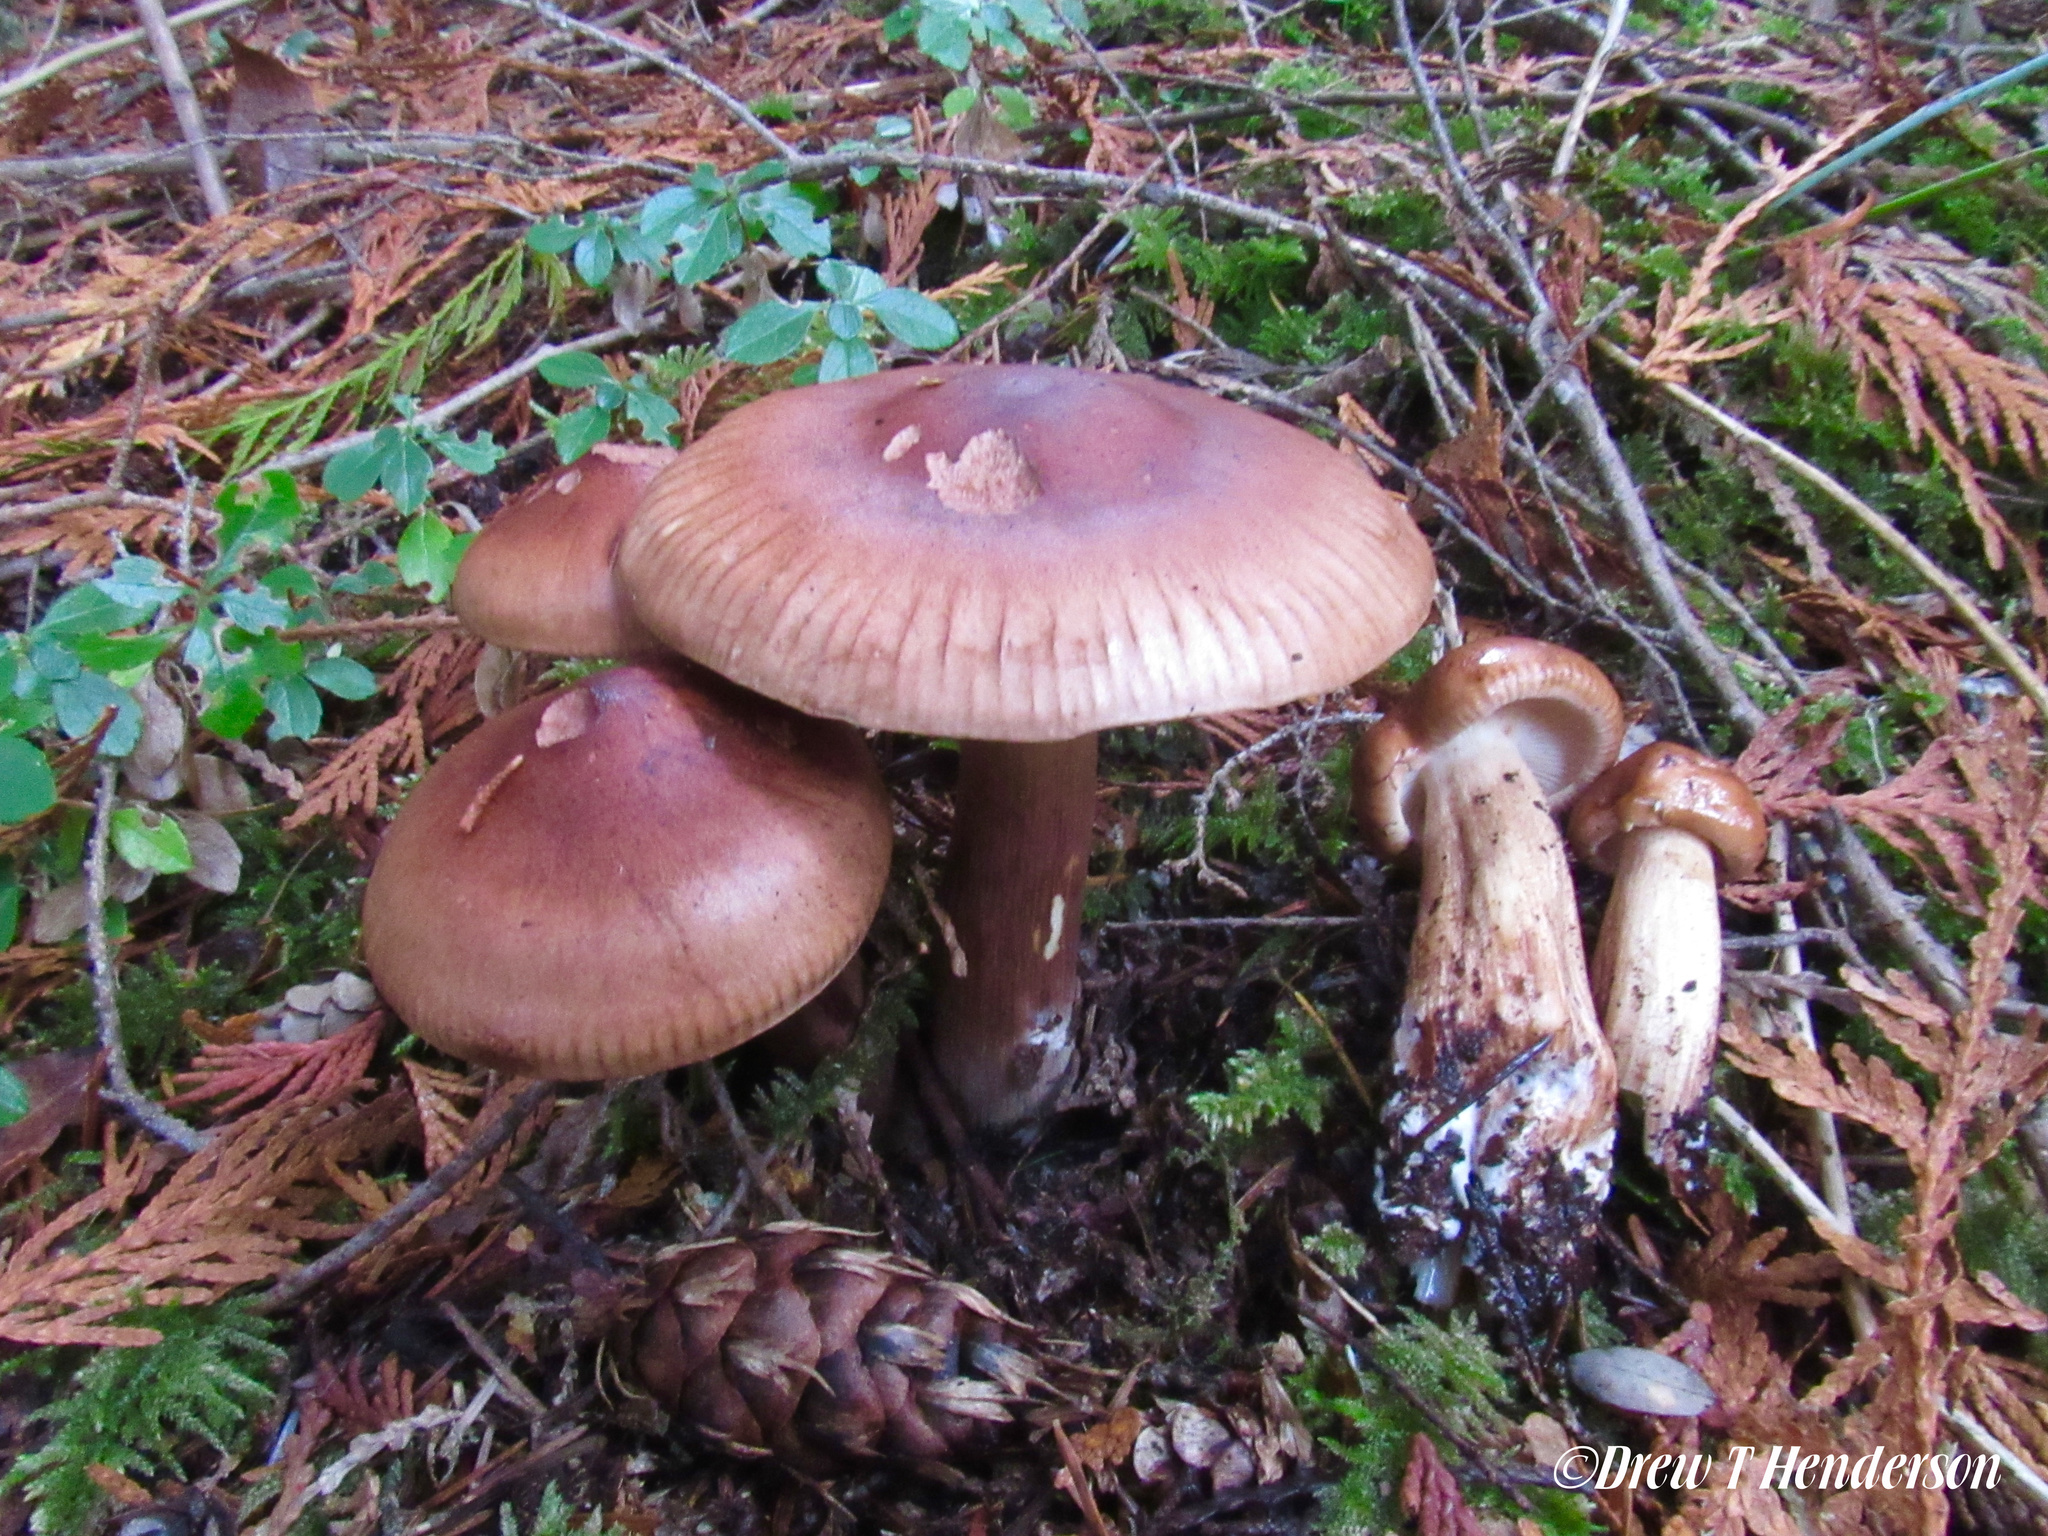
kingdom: Fungi
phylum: Basidiomycota
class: Agaricomycetes
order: Agaricales
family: Tricholomataceae
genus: Tricholoma
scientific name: Tricholoma pessundatum
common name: Tacked knight
